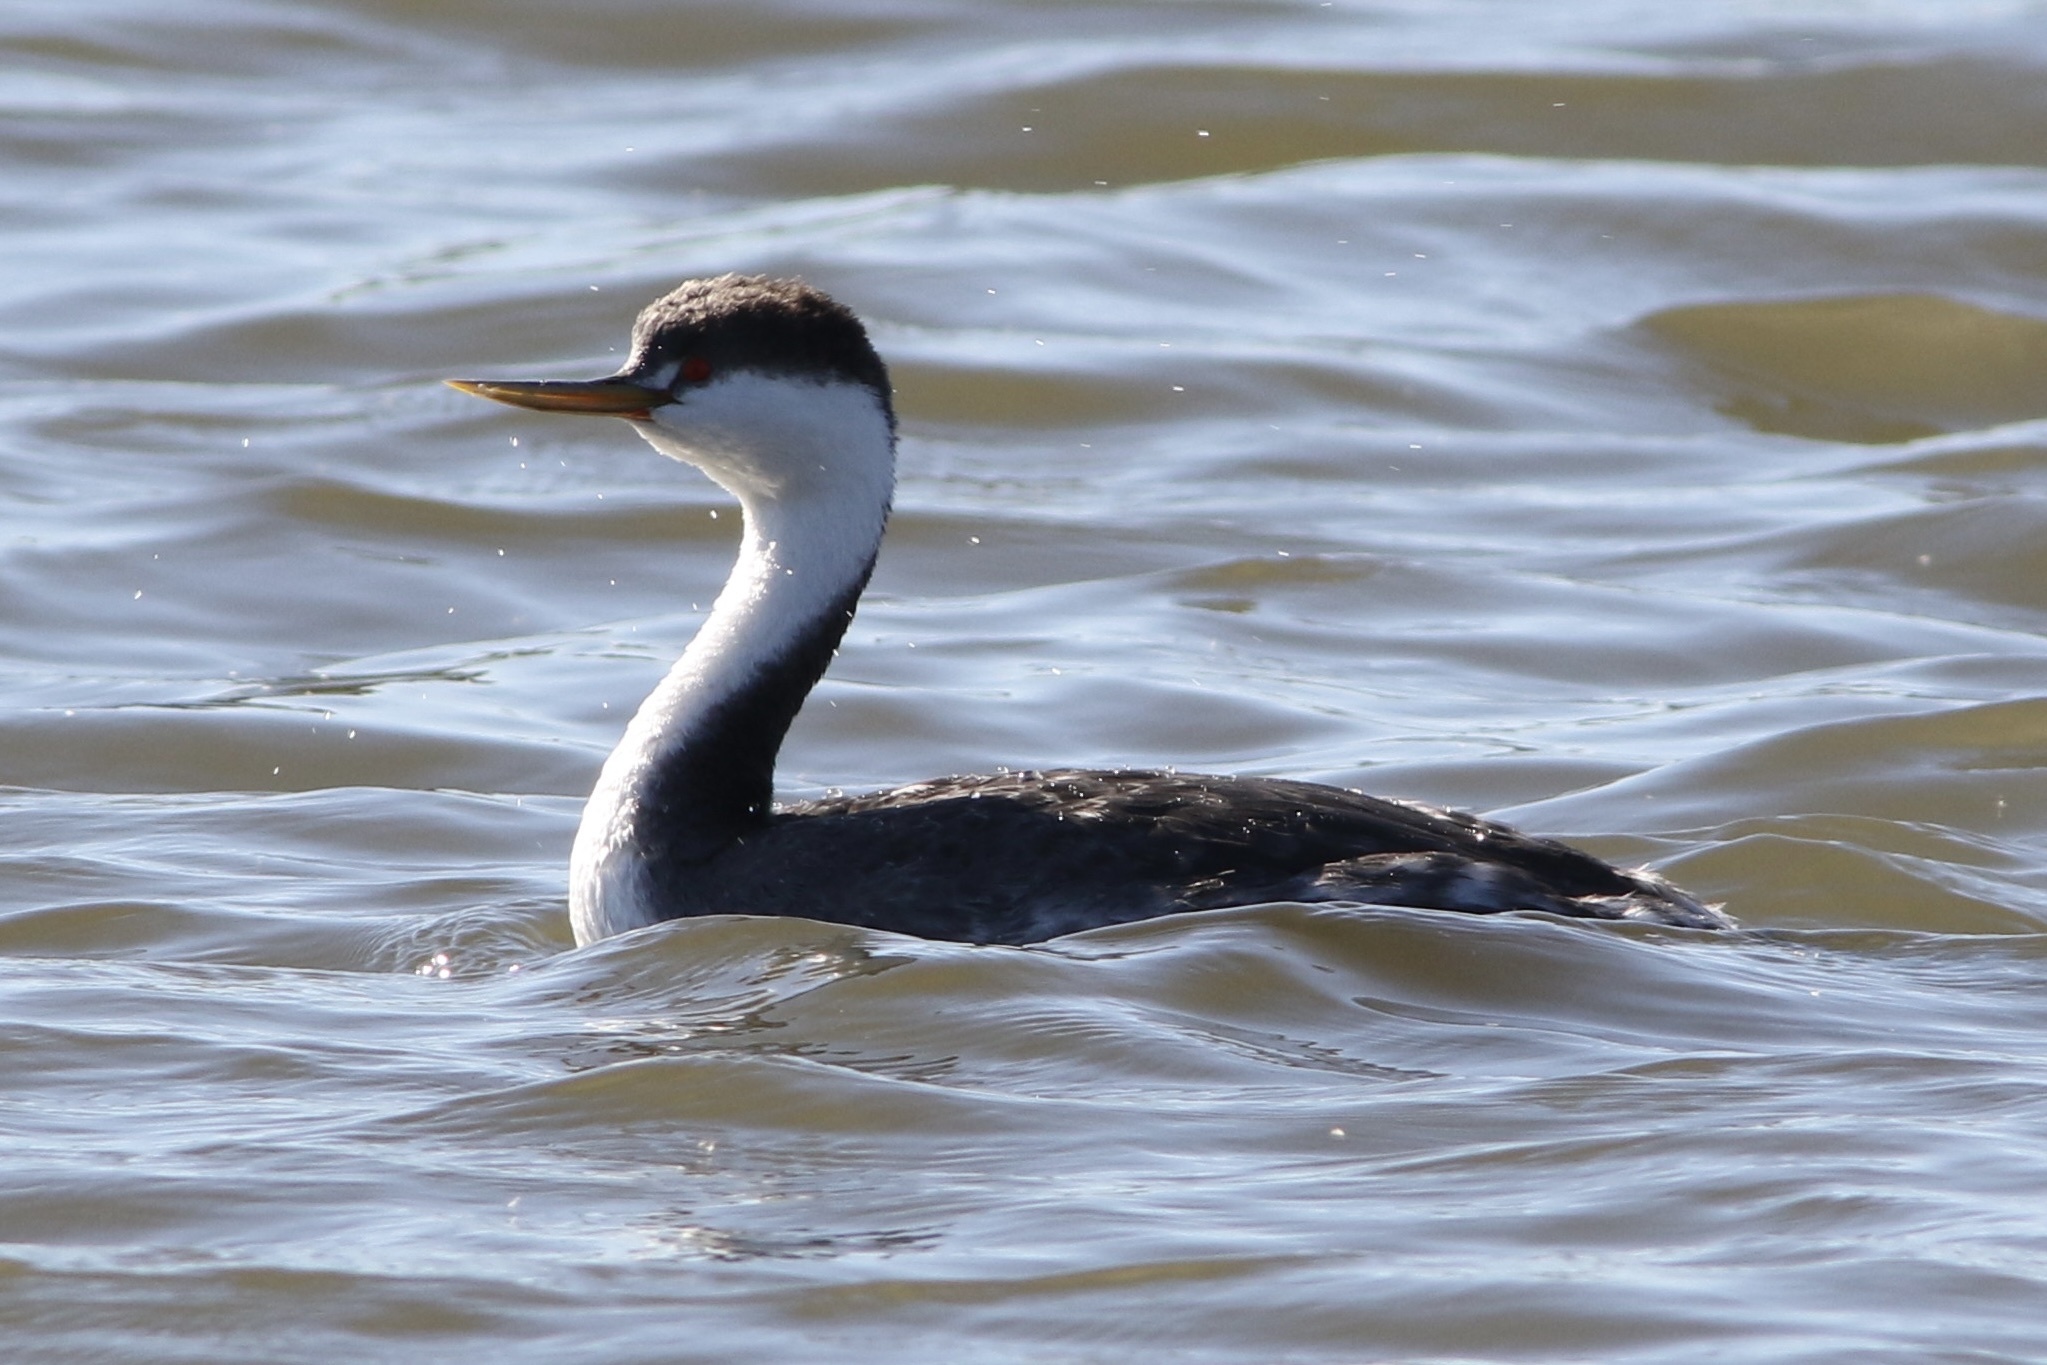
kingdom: Animalia
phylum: Chordata
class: Aves
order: Podicipediformes
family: Podicipedidae
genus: Aechmophorus
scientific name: Aechmophorus occidentalis
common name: Western grebe
